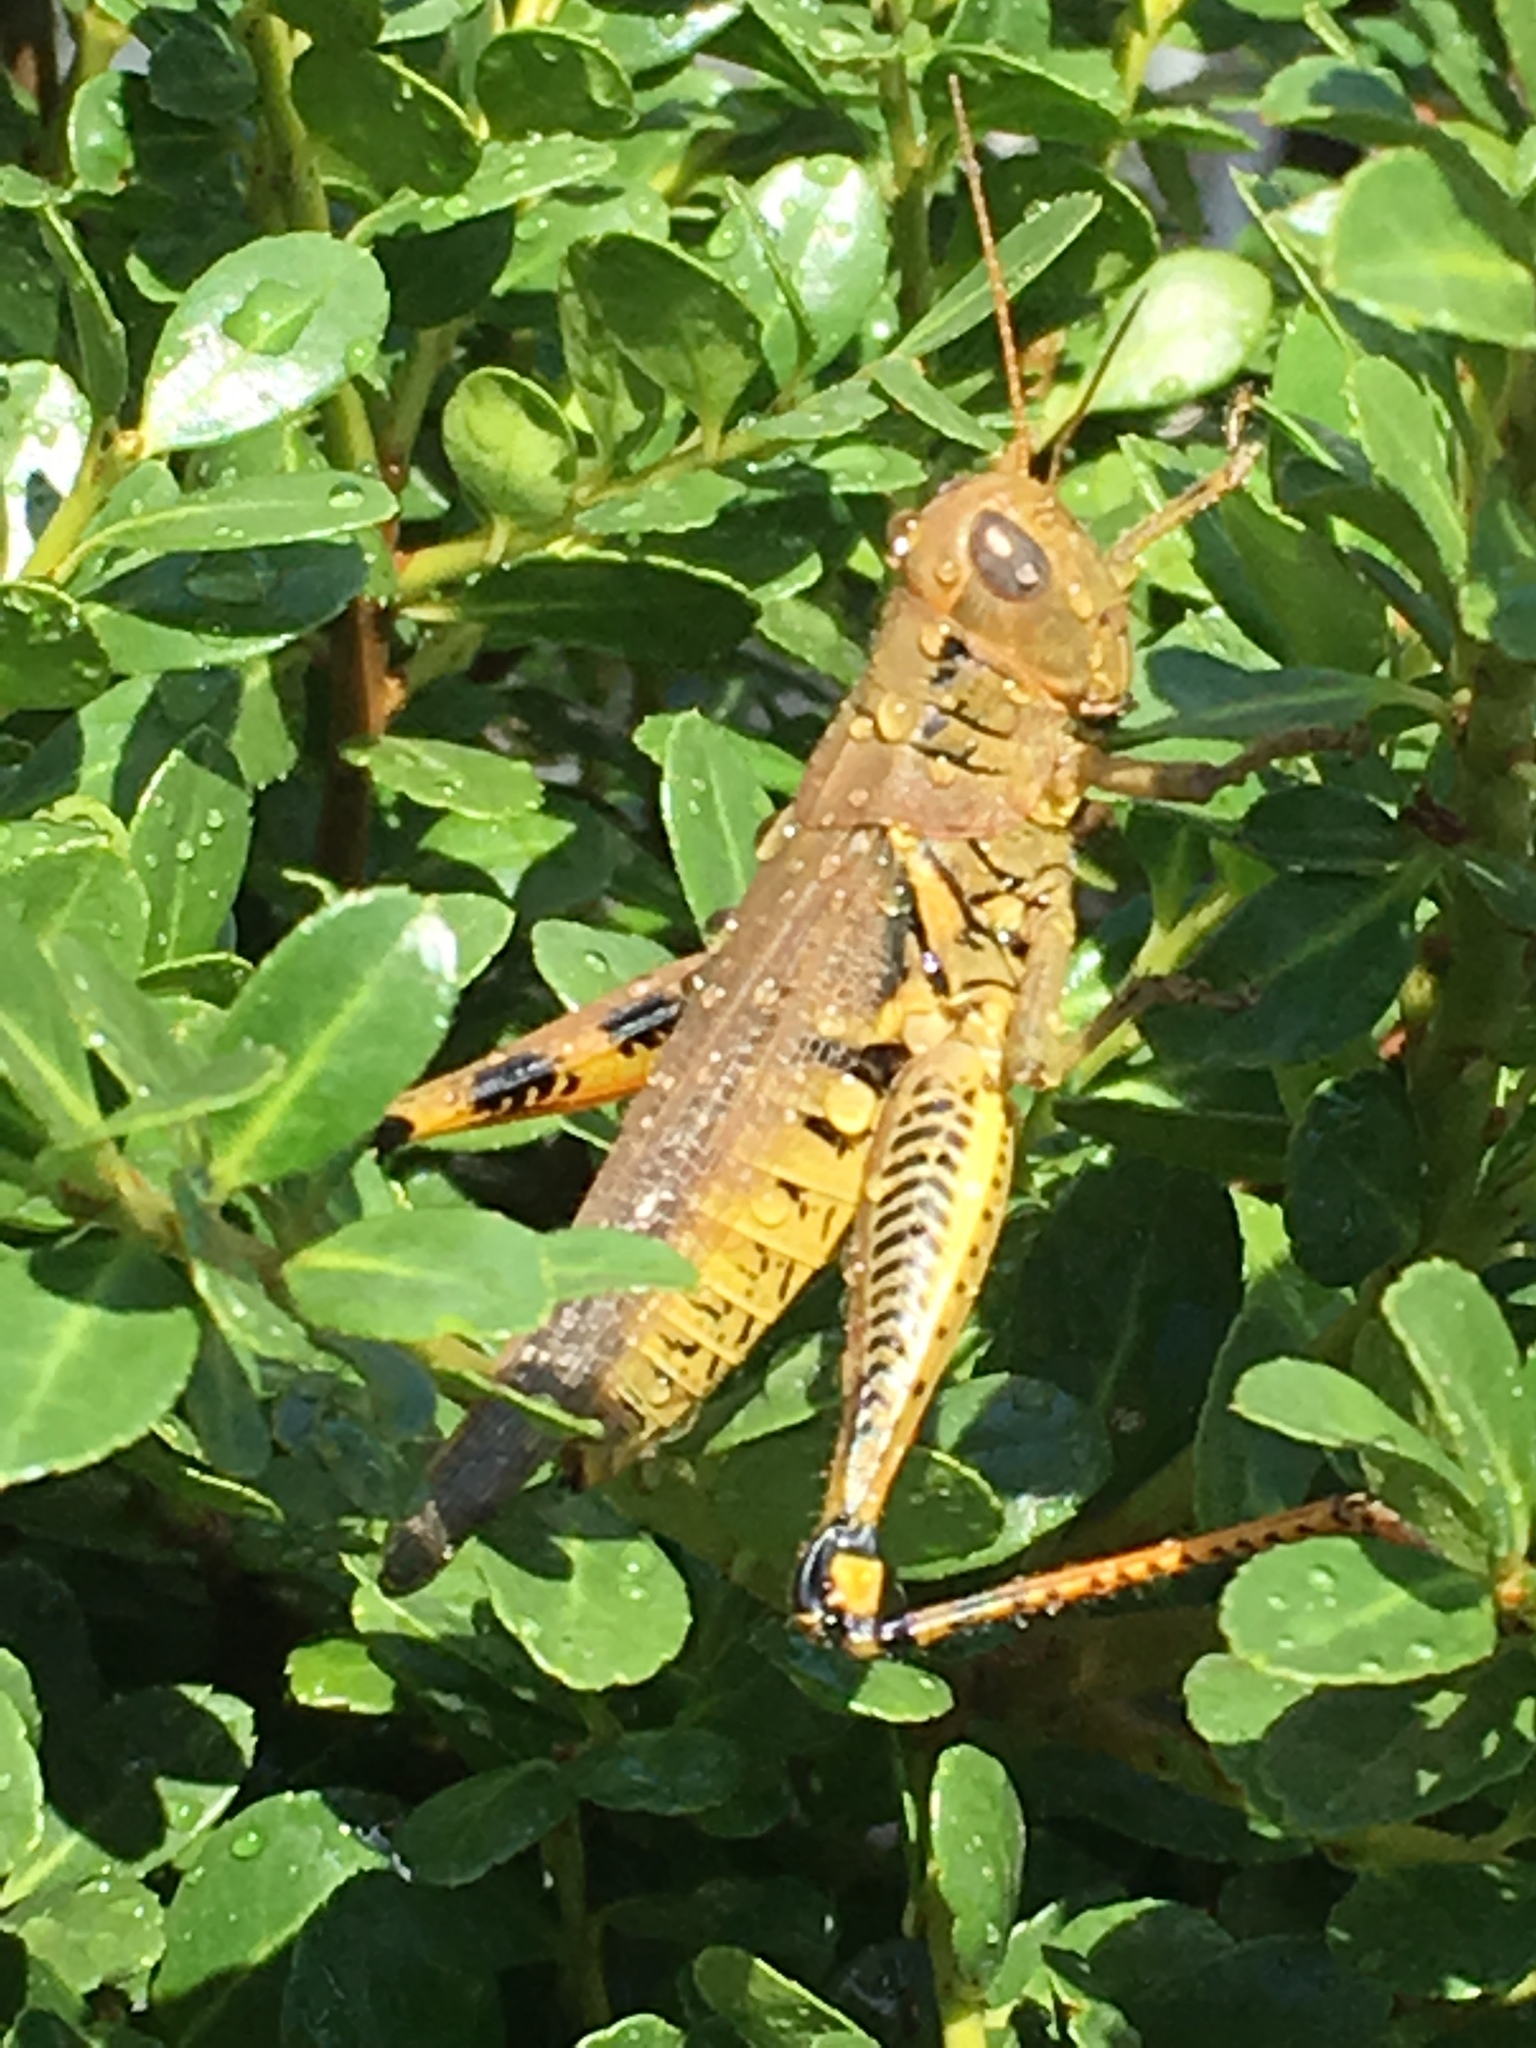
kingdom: Animalia
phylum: Arthropoda
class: Insecta
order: Orthoptera
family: Acrididae
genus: Melanoplus
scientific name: Melanoplus differentialis
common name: Differential grasshopper
